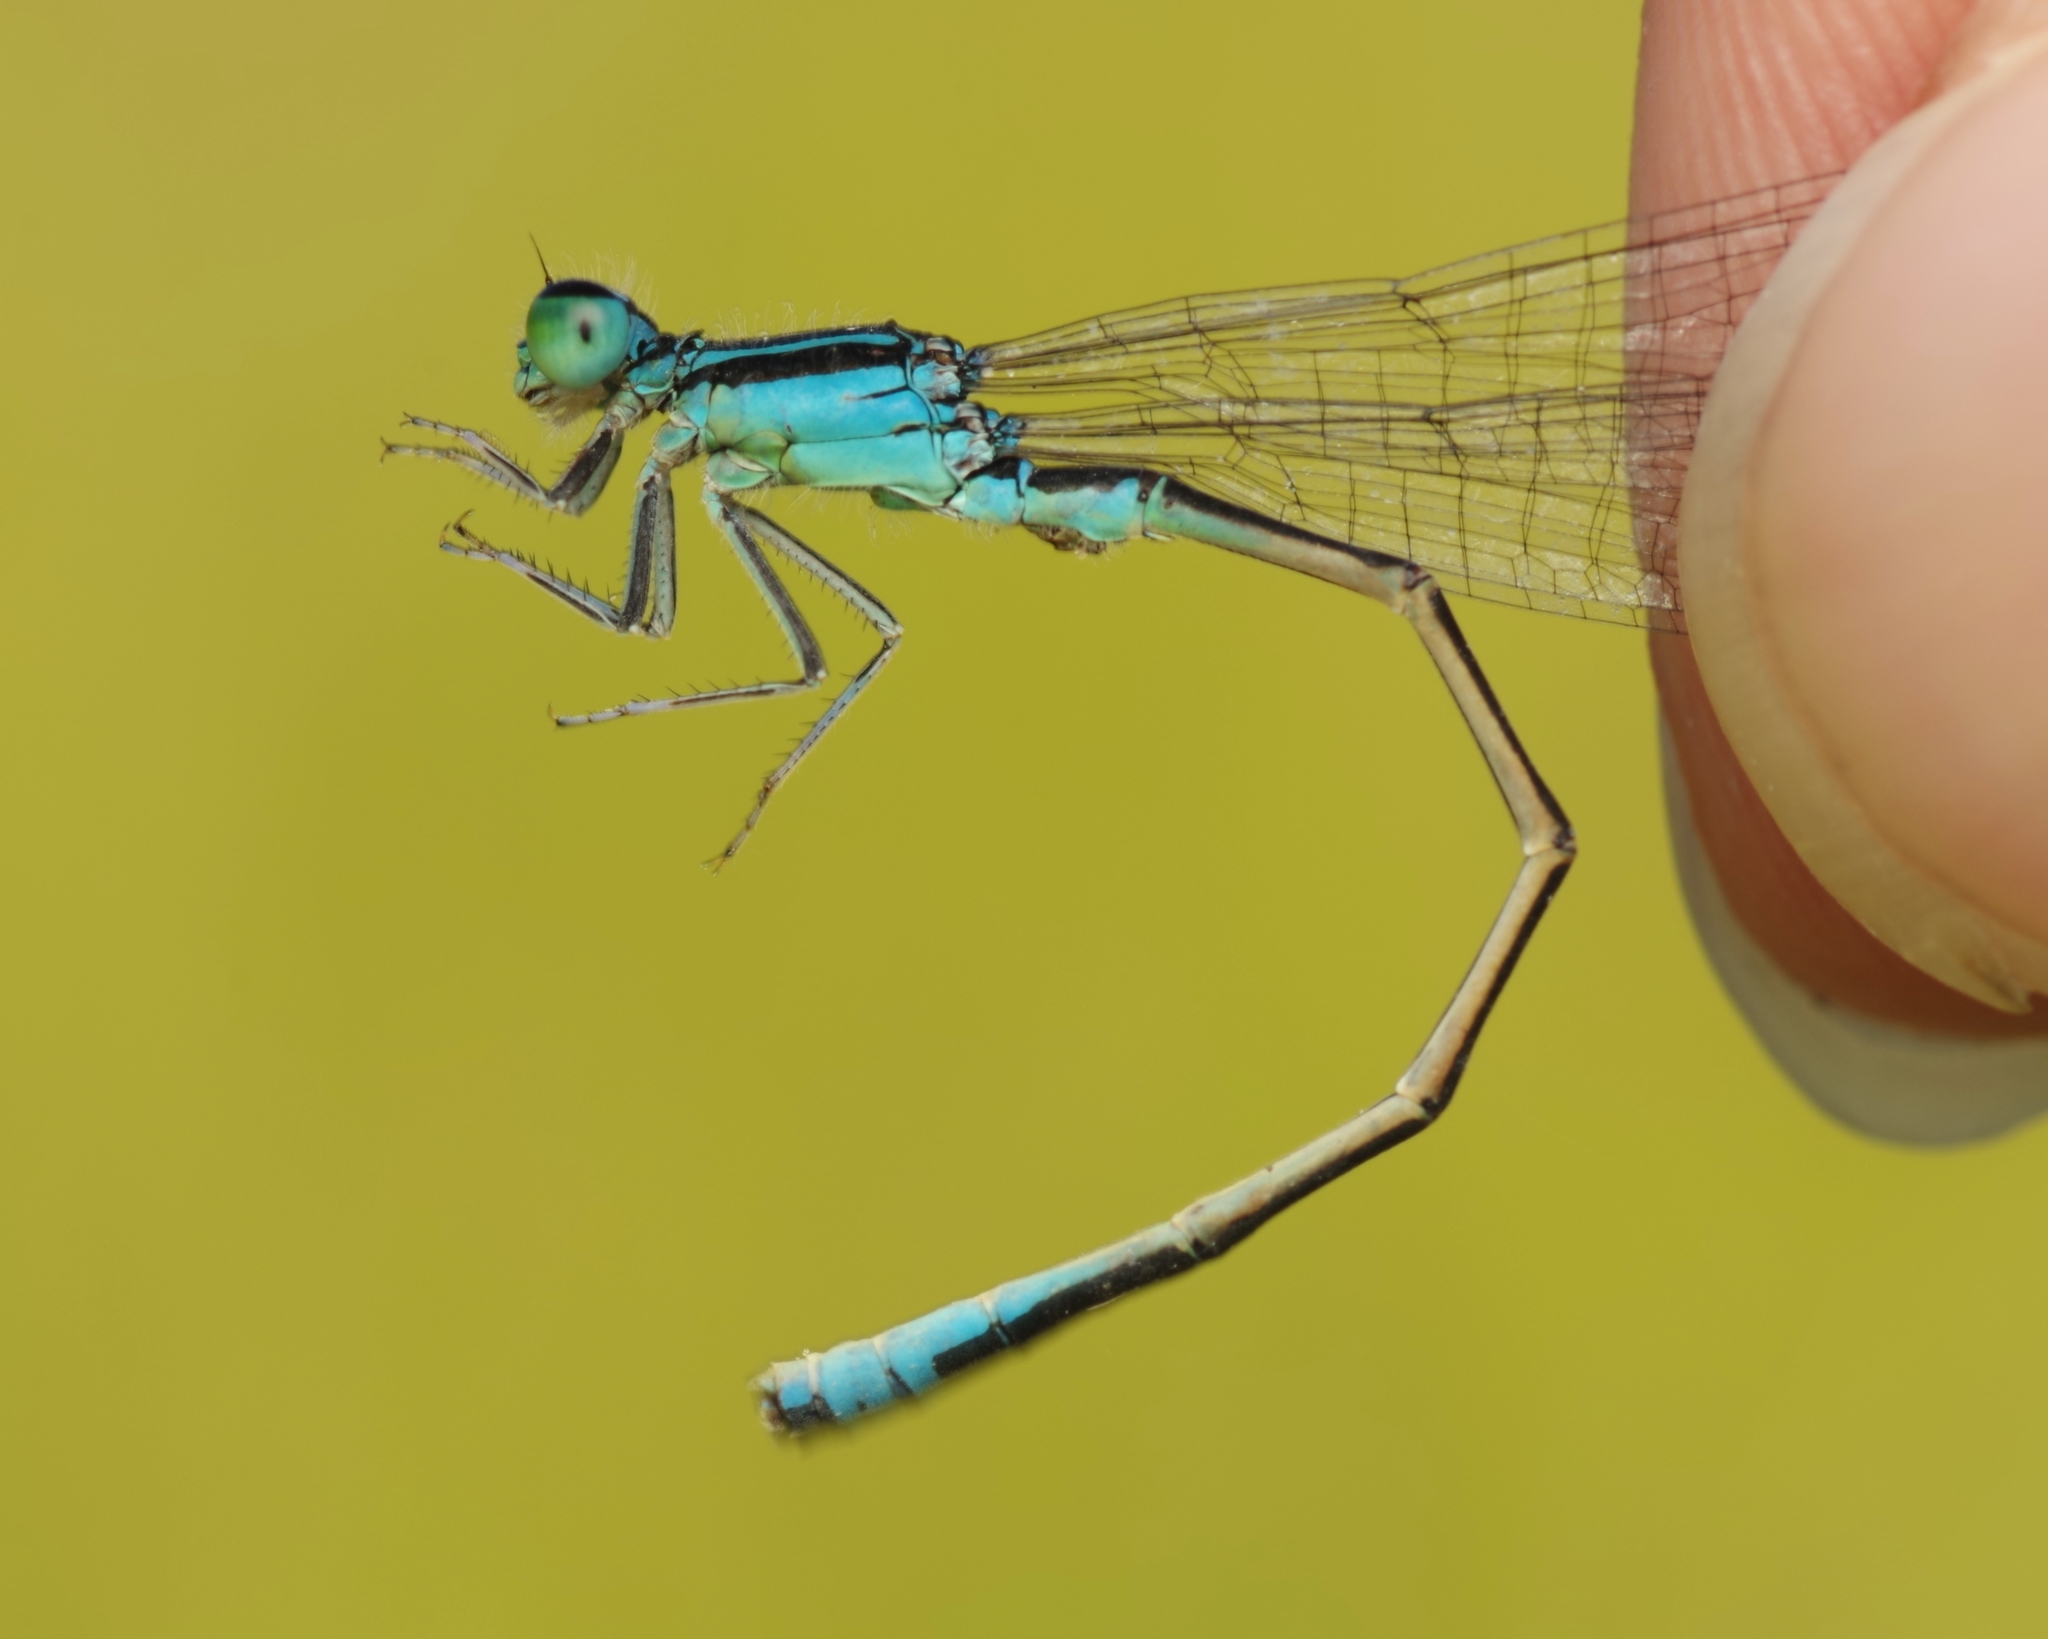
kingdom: Animalia
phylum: Arthropoda
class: Insecta
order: Odonata
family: Coenagrionidae
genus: Ischnura
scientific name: Ischnura pumilio
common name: Scarce blue-tailed damselfly
